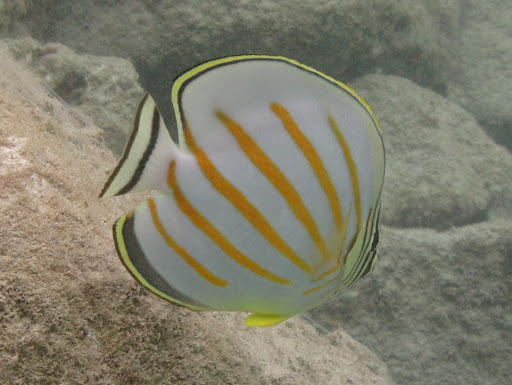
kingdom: Animalia
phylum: Chordata
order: Perciformes
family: Chaetodontidae
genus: Chaetodon
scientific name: Chaetodon ornatissimus
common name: Ornate butterflyfish
